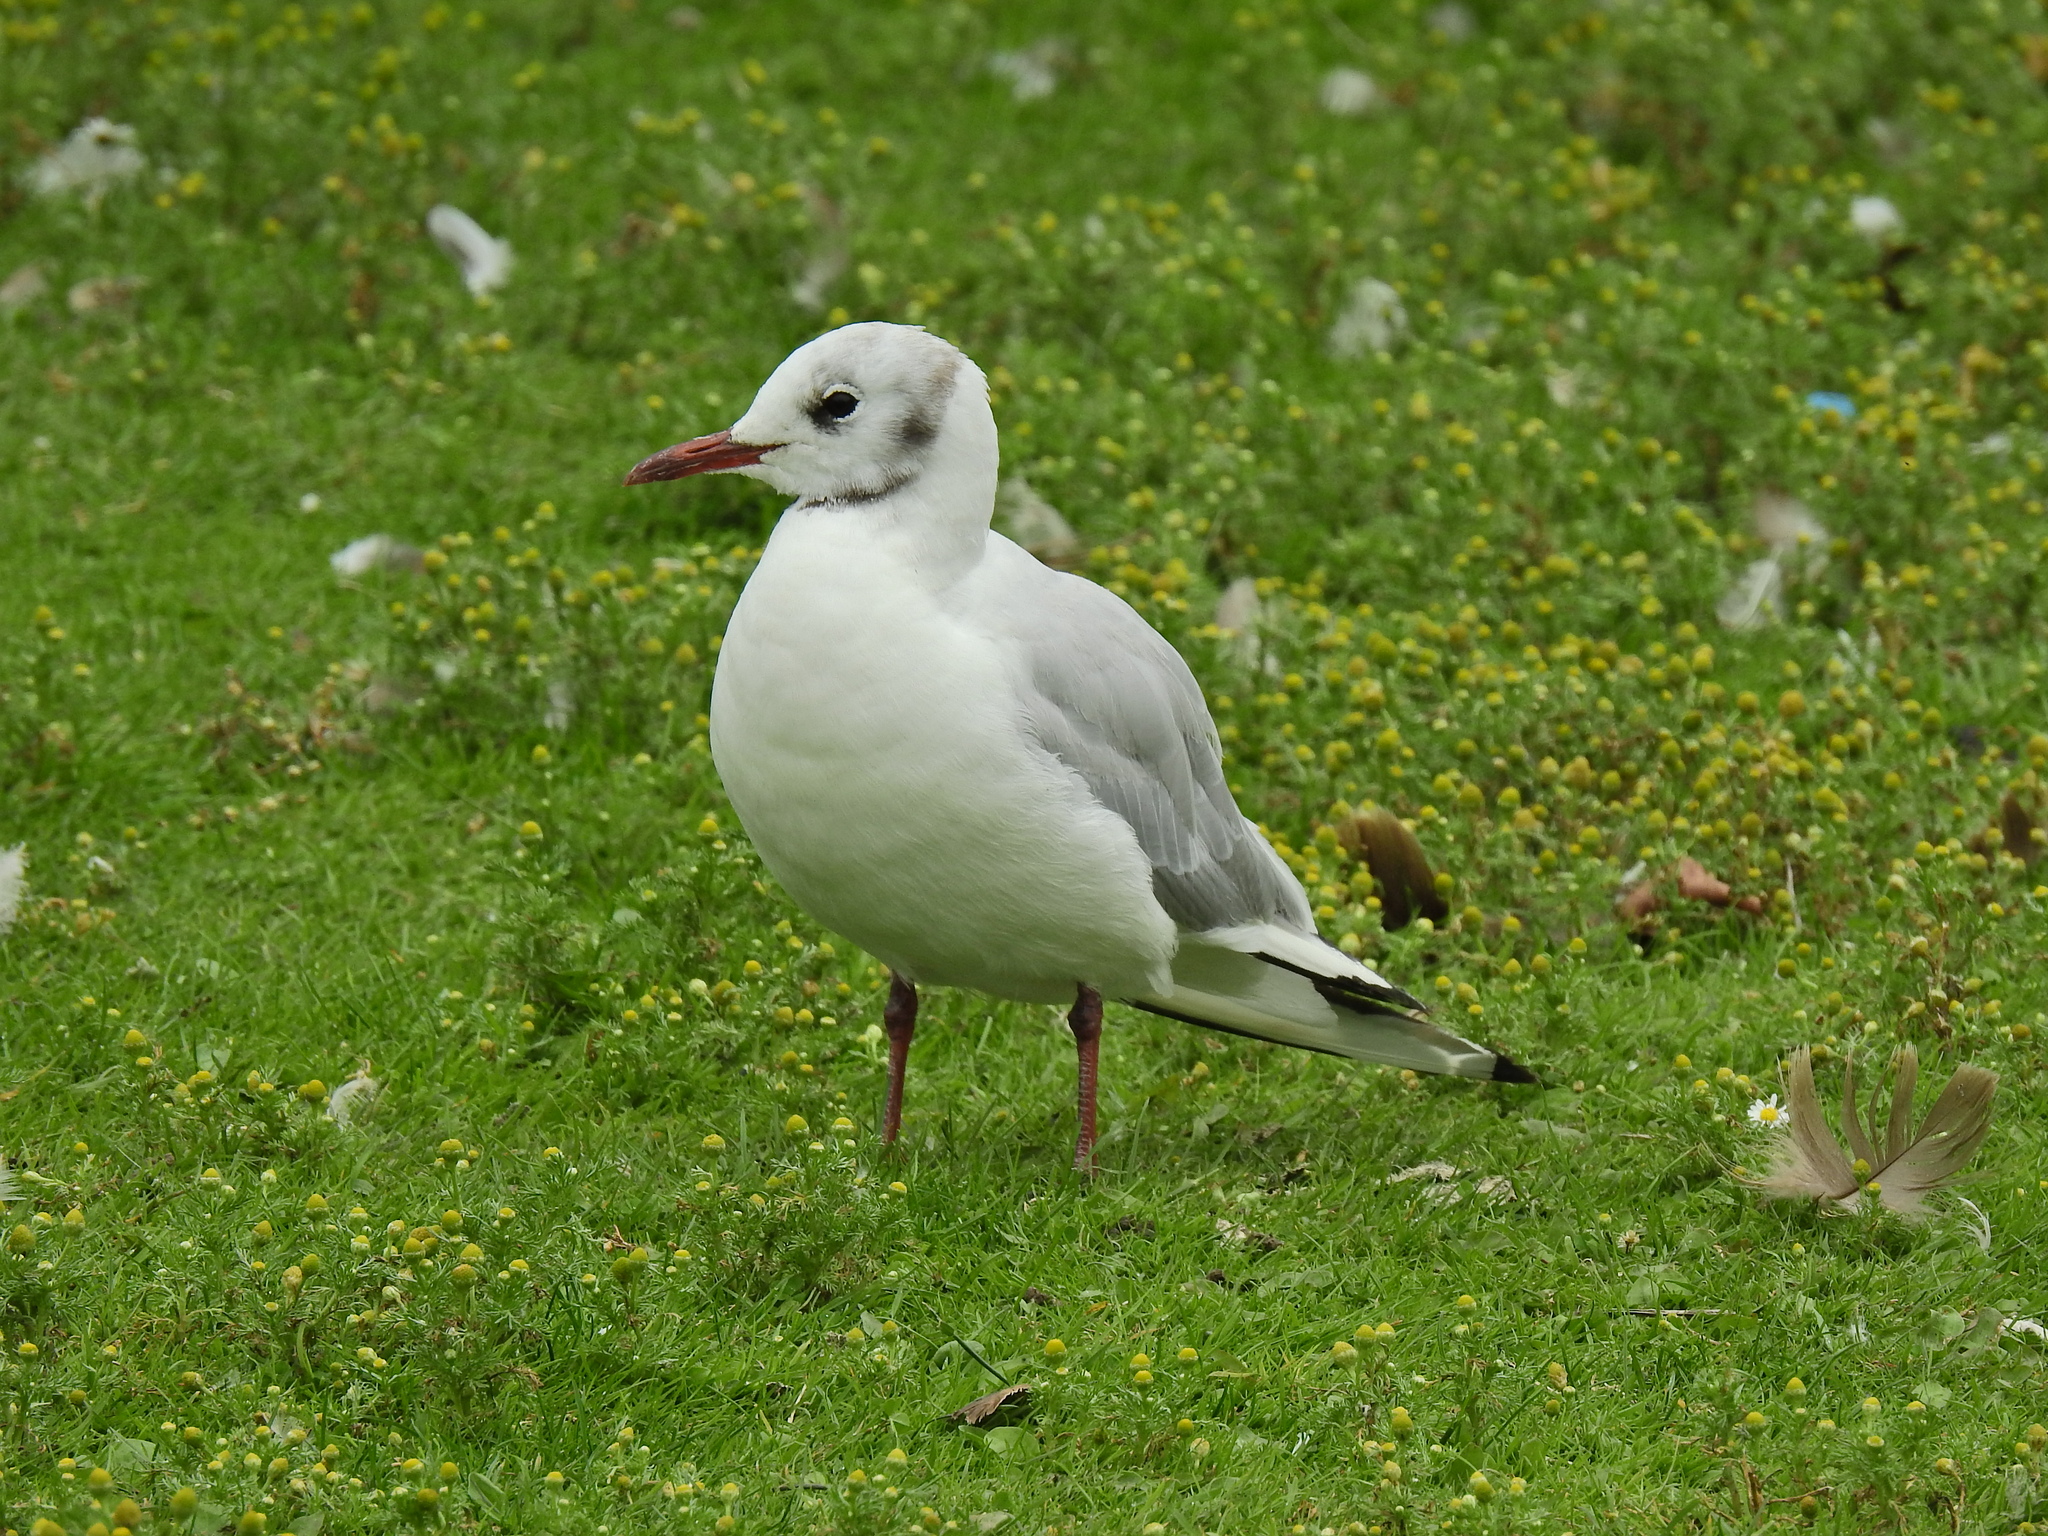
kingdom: Animalia
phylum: Chordata
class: Aves
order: Charadriiformes
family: Laridae
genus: Chroicocephalus
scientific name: Chroicocephalus ridibundus
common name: Black-headed gull
